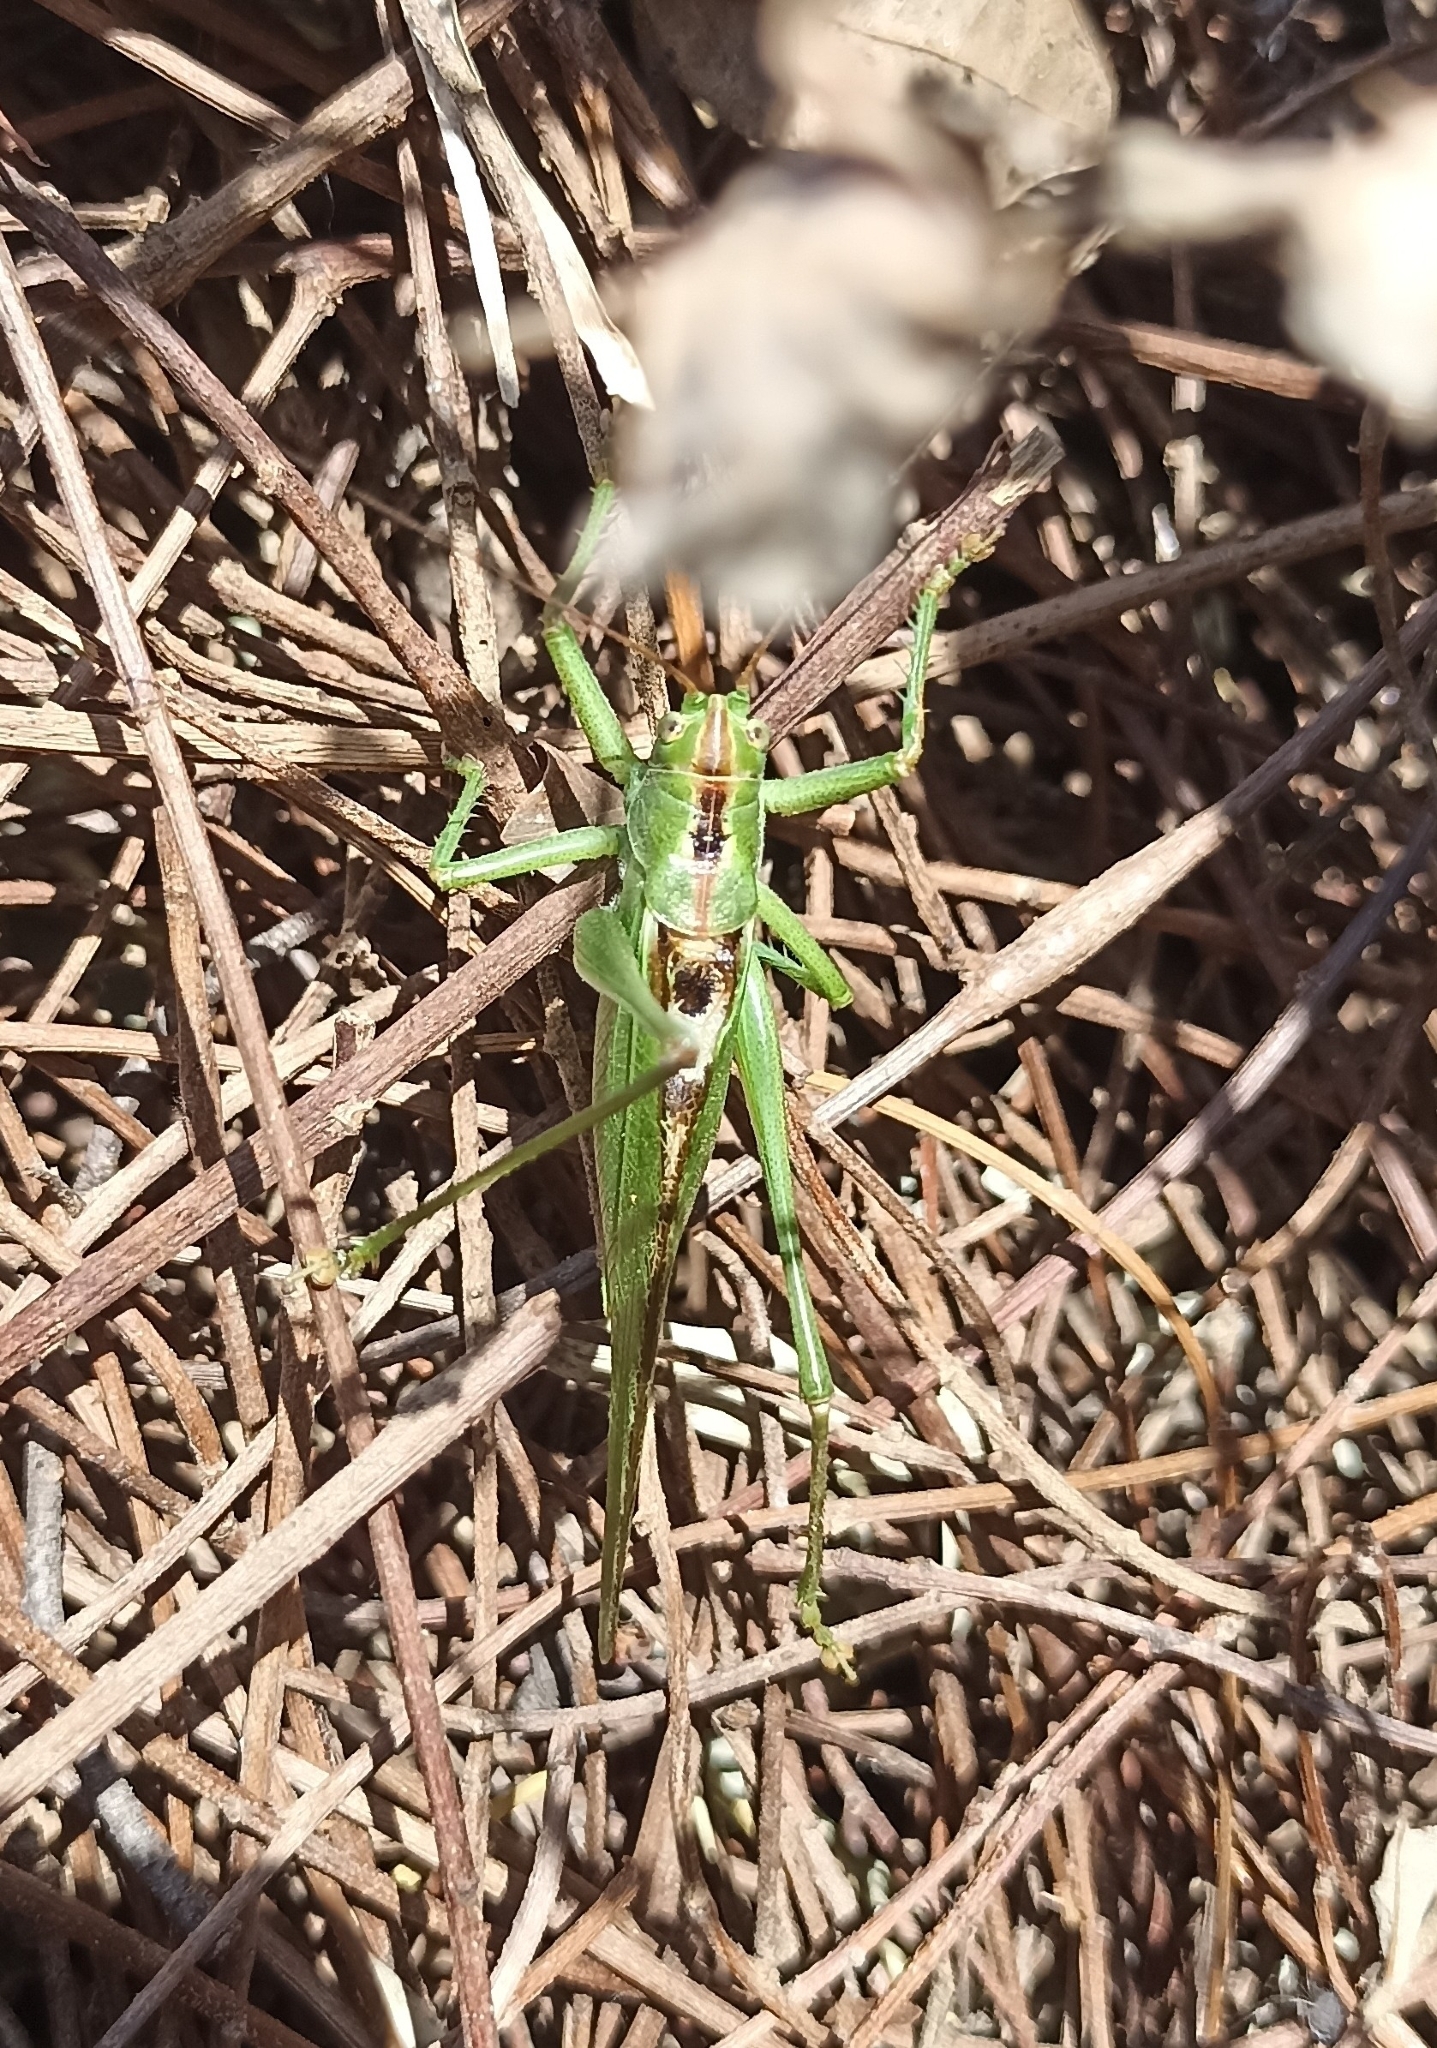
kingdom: Animalia
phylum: Arthropoda
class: Insecta
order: Orthoptera
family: Tettigoniidae
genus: Tettigonia
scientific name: Tettigonia viridissima
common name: Great green bush-cricket
